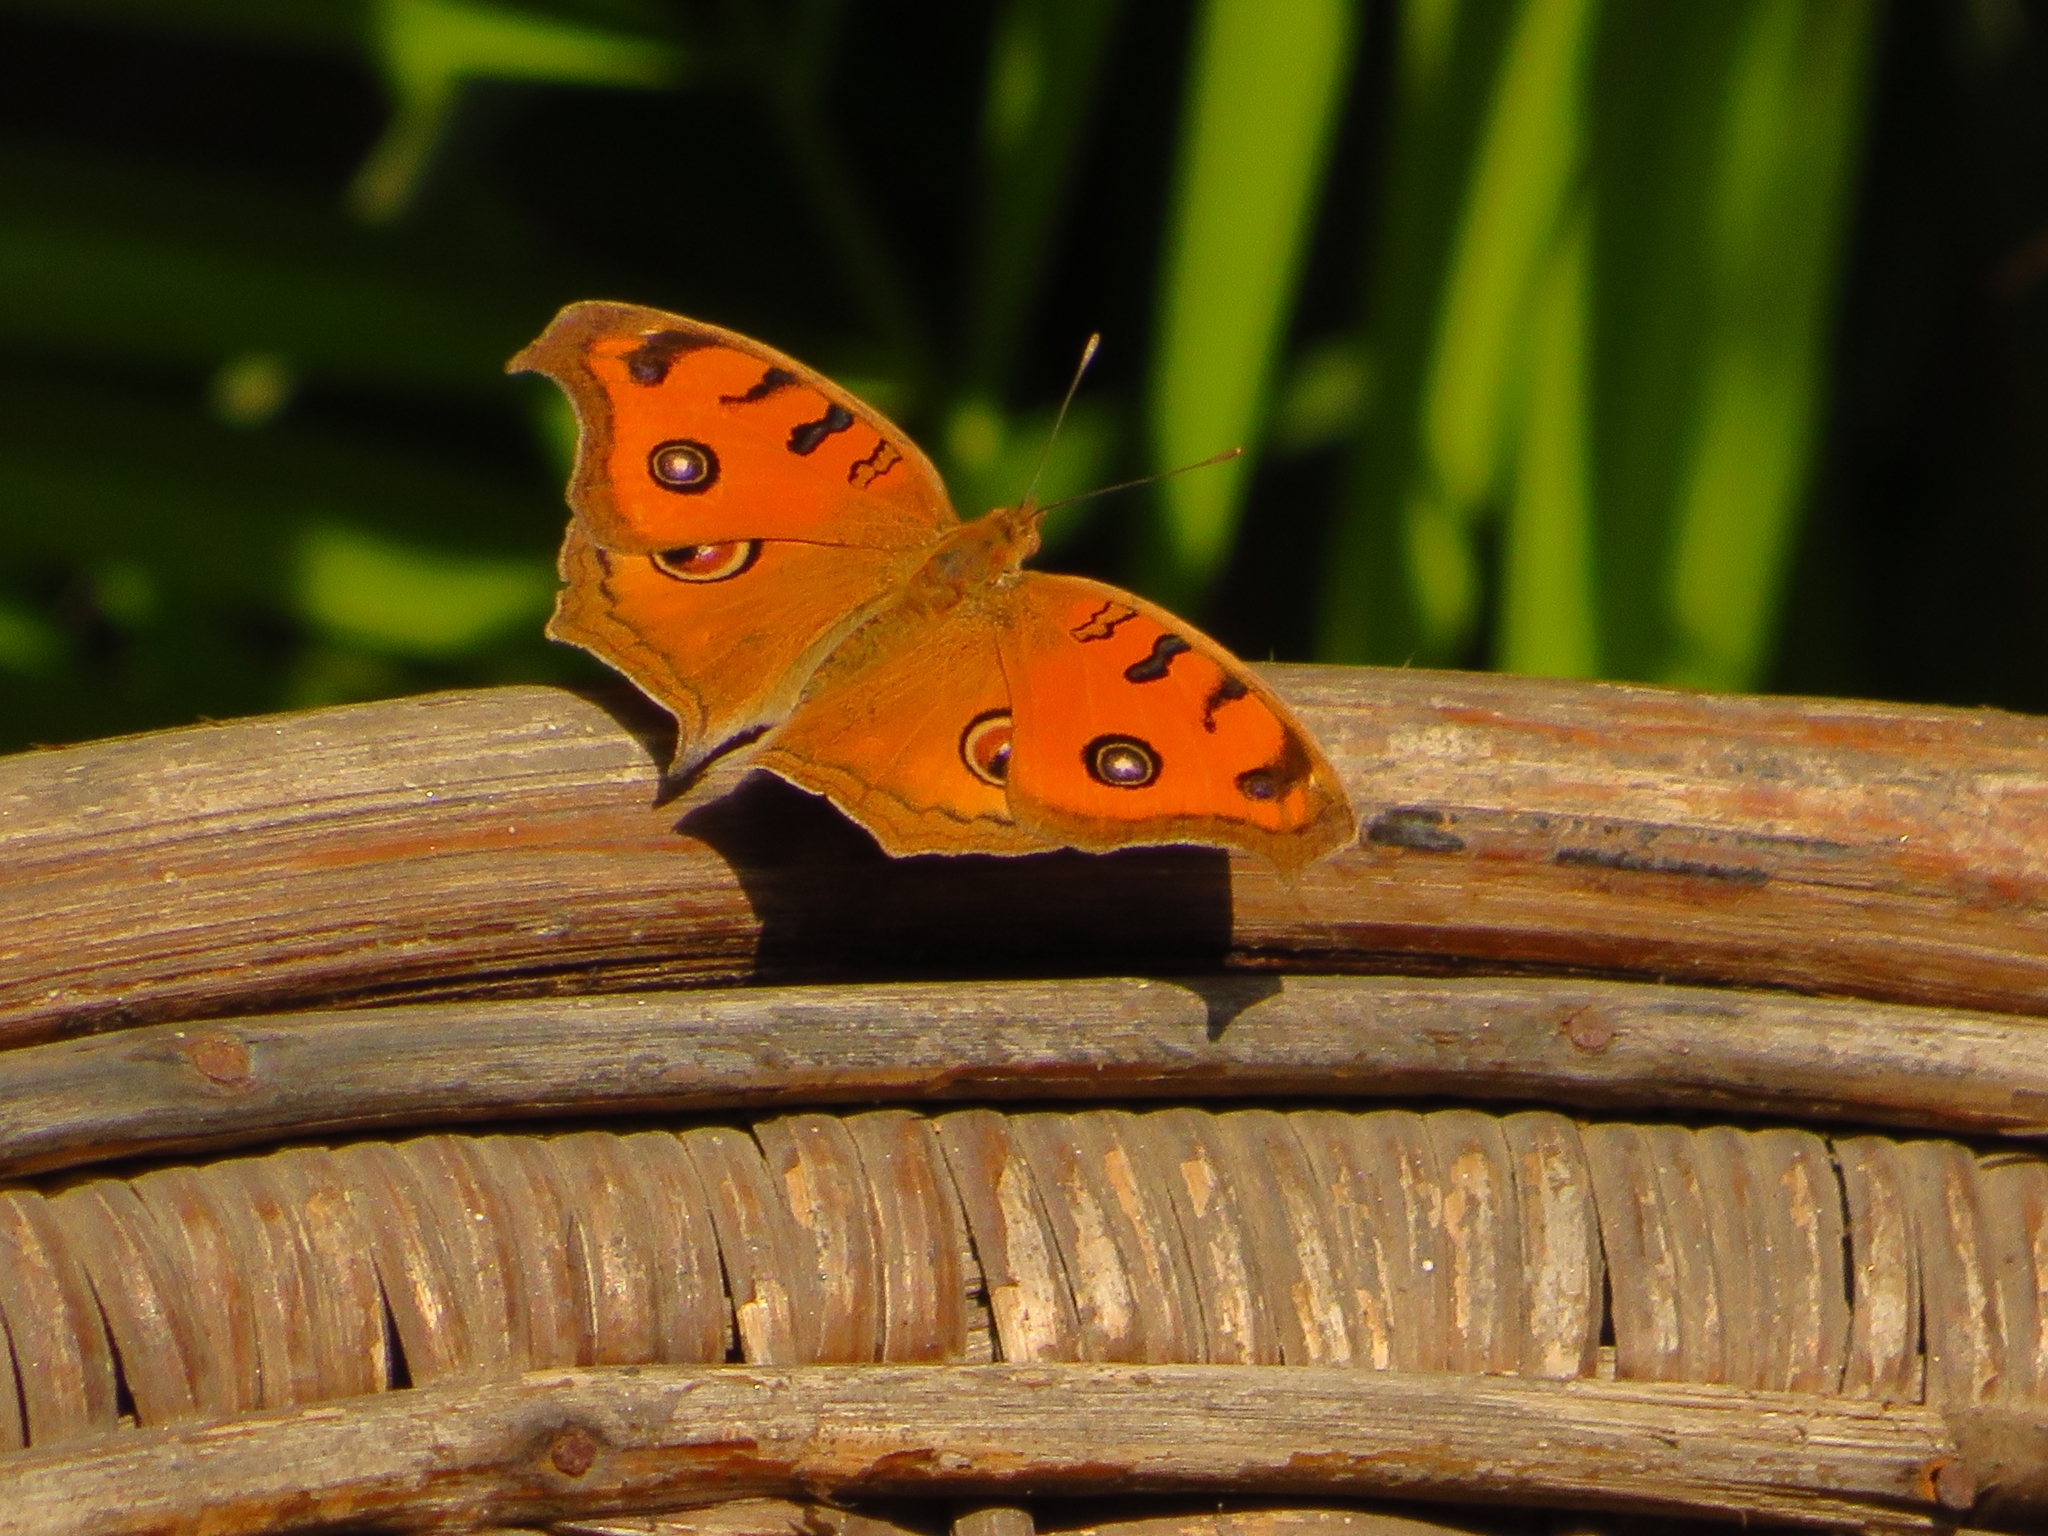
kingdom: Animalia
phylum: Arthropoda
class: Insecta
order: Lepidoptera
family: Nymphalidae
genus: Junonia
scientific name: Junonia almana
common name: Peacock pansy
